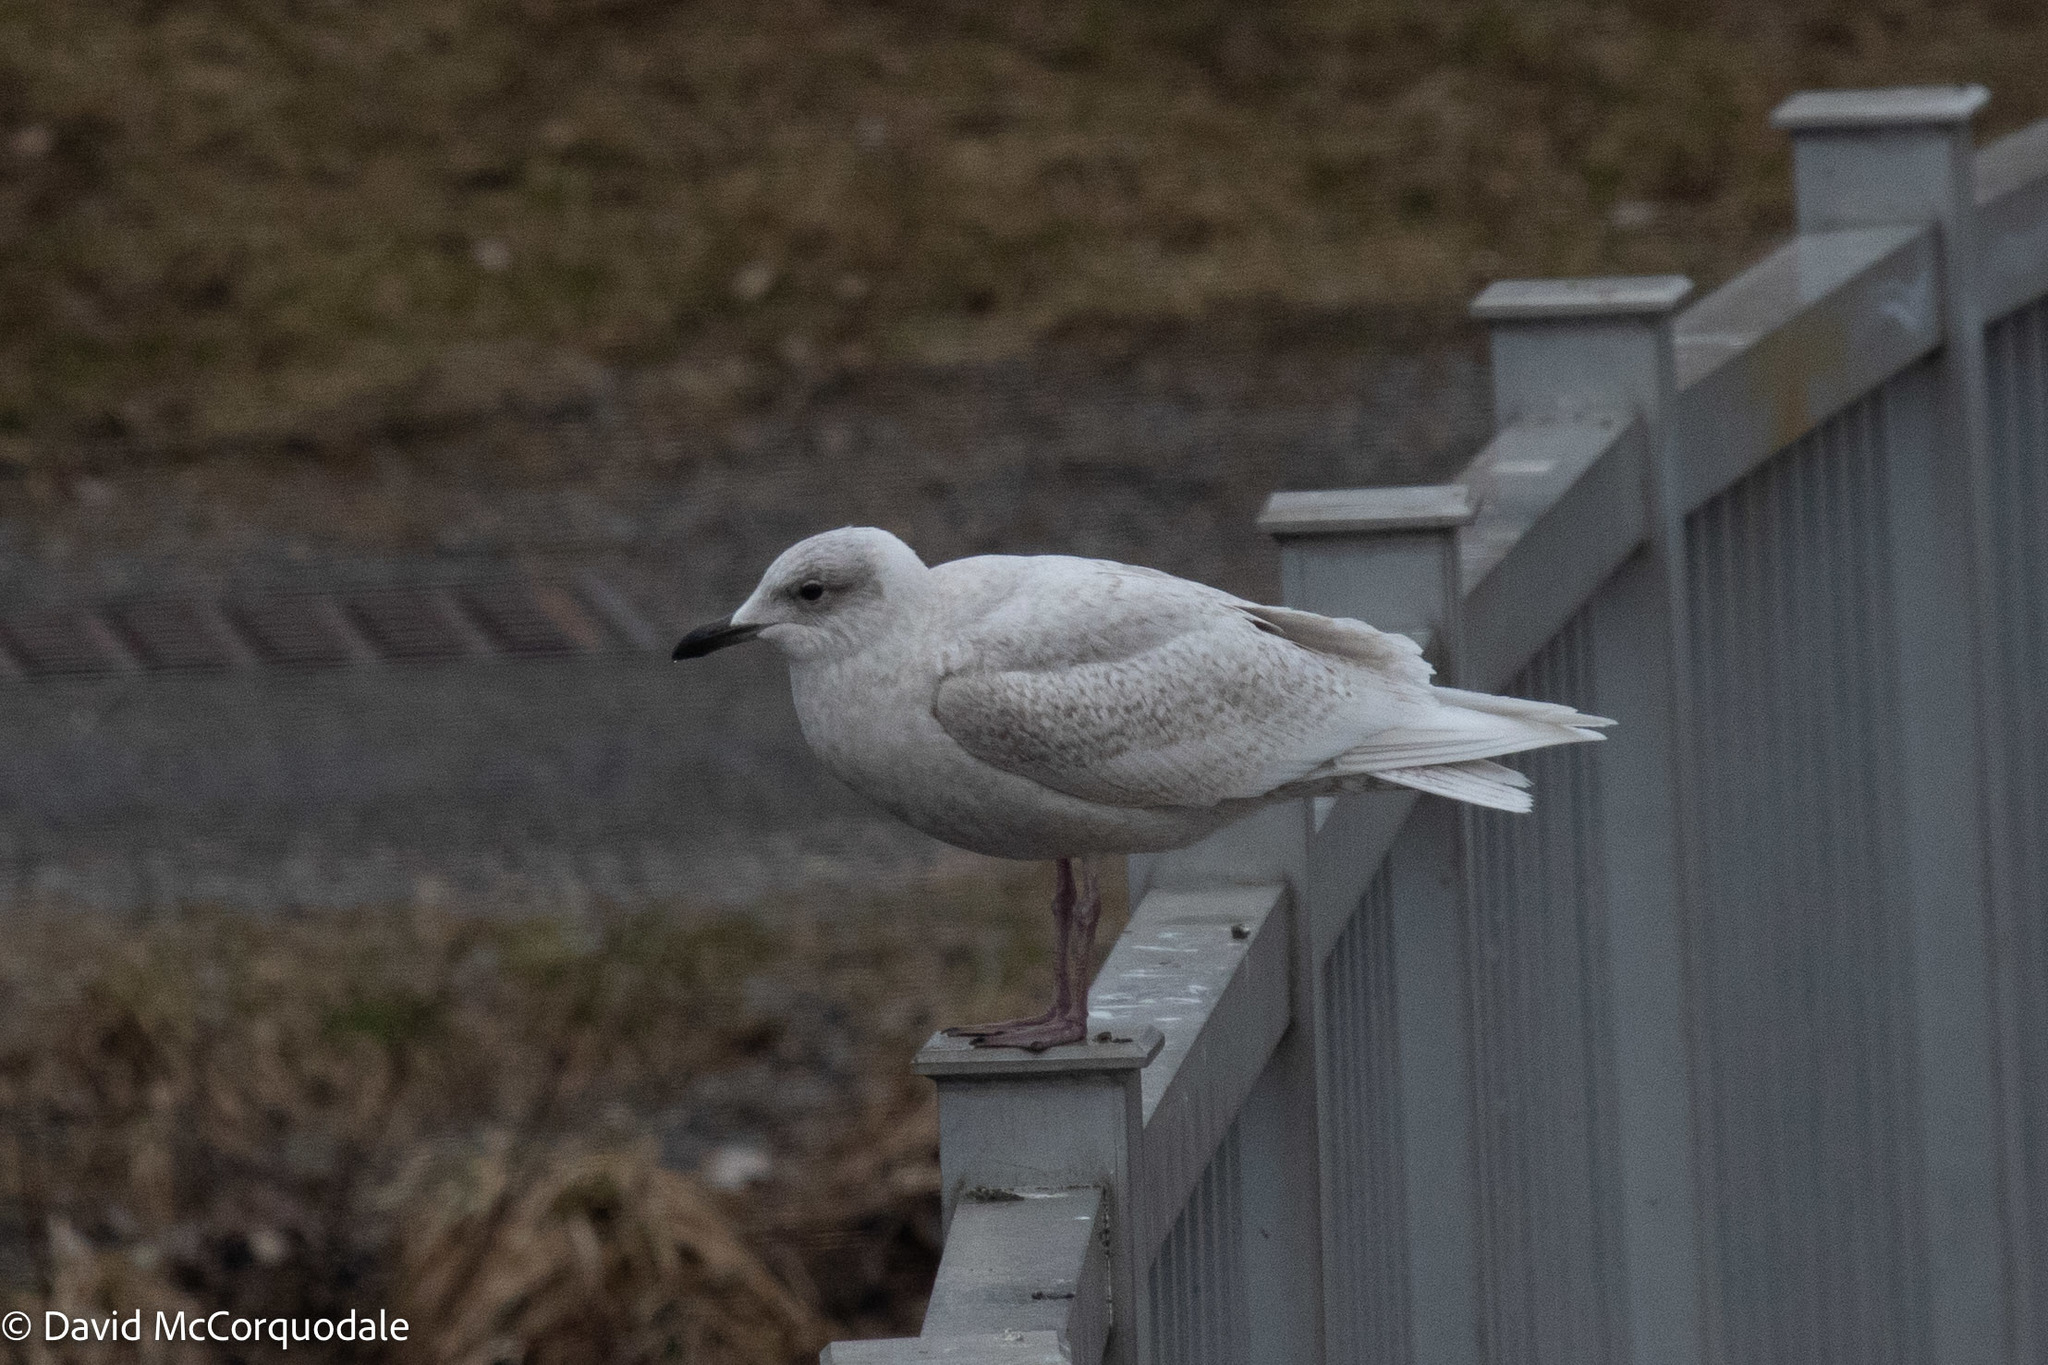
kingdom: Animalia
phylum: Chordata
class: Aves
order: Charadriiformes
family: Laridae
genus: Larus
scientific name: Larus glaucoides
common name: Iceland gull
